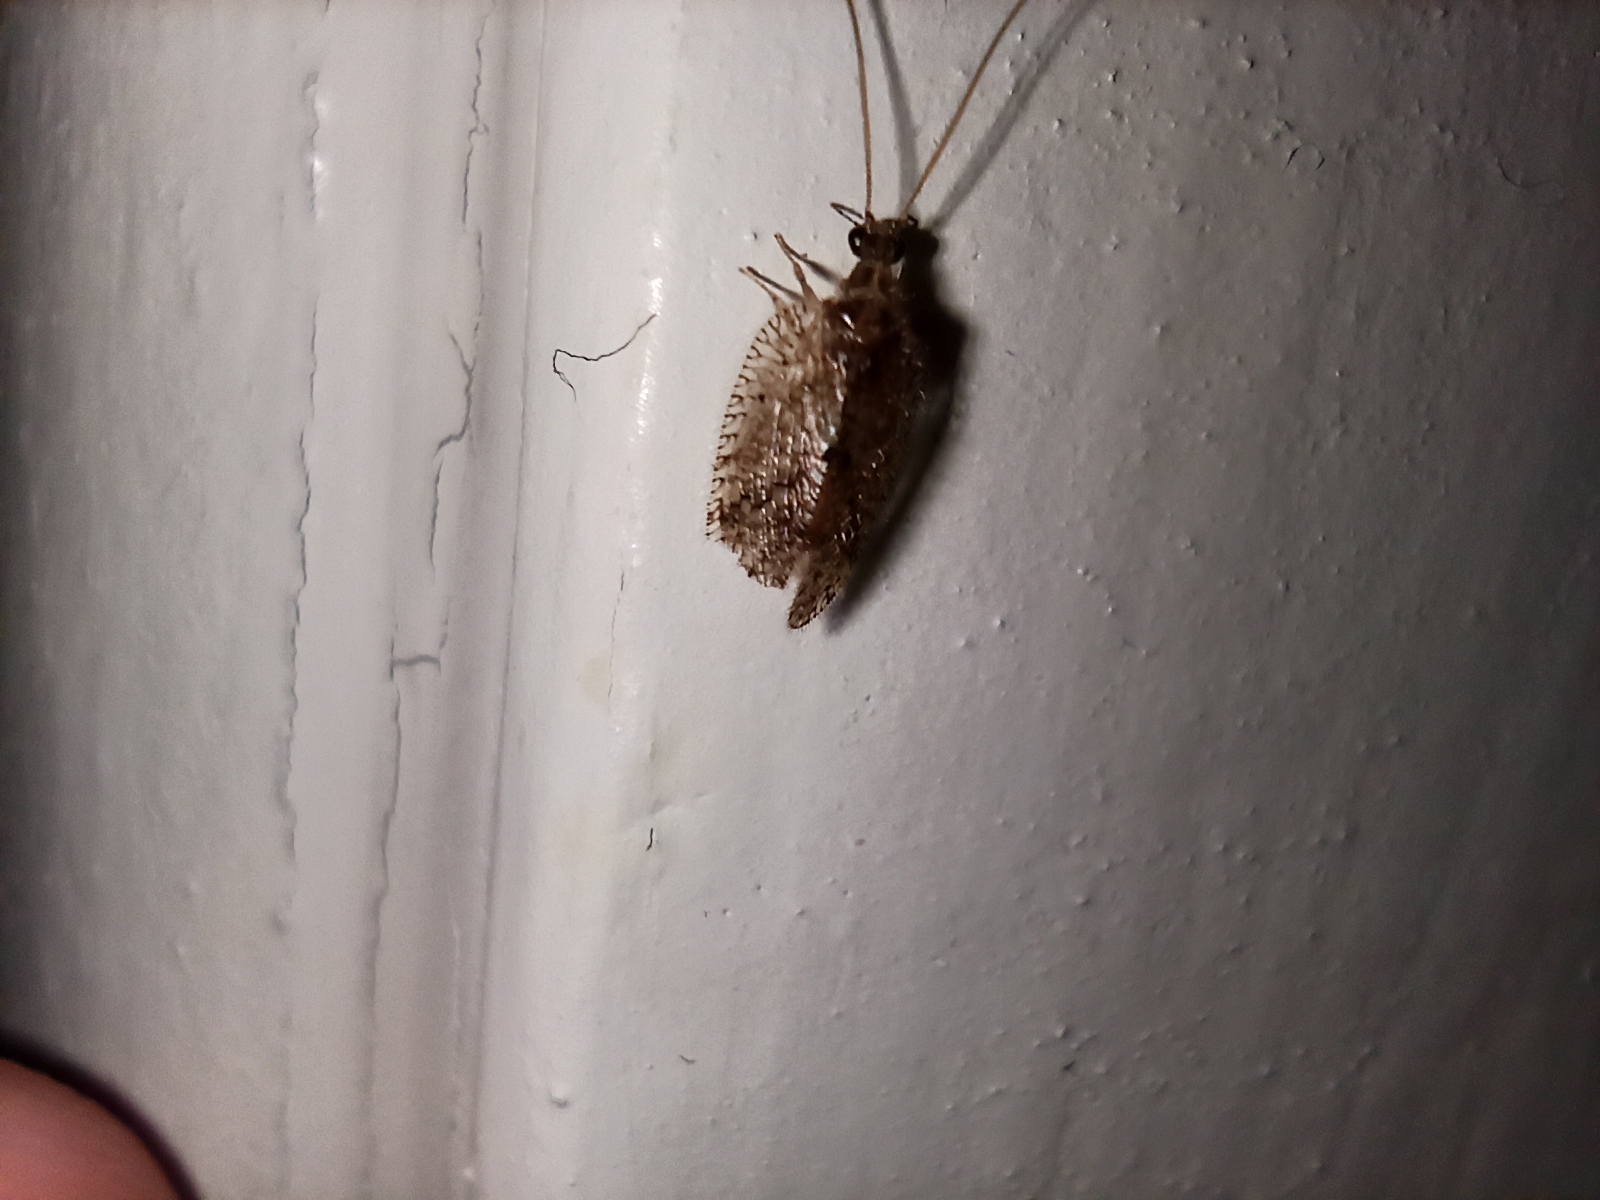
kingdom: Animalia
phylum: Arthropoda
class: Insecta
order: Neuroptera
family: Hemerobiidae
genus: Psectra
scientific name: Psectra nakaharai
